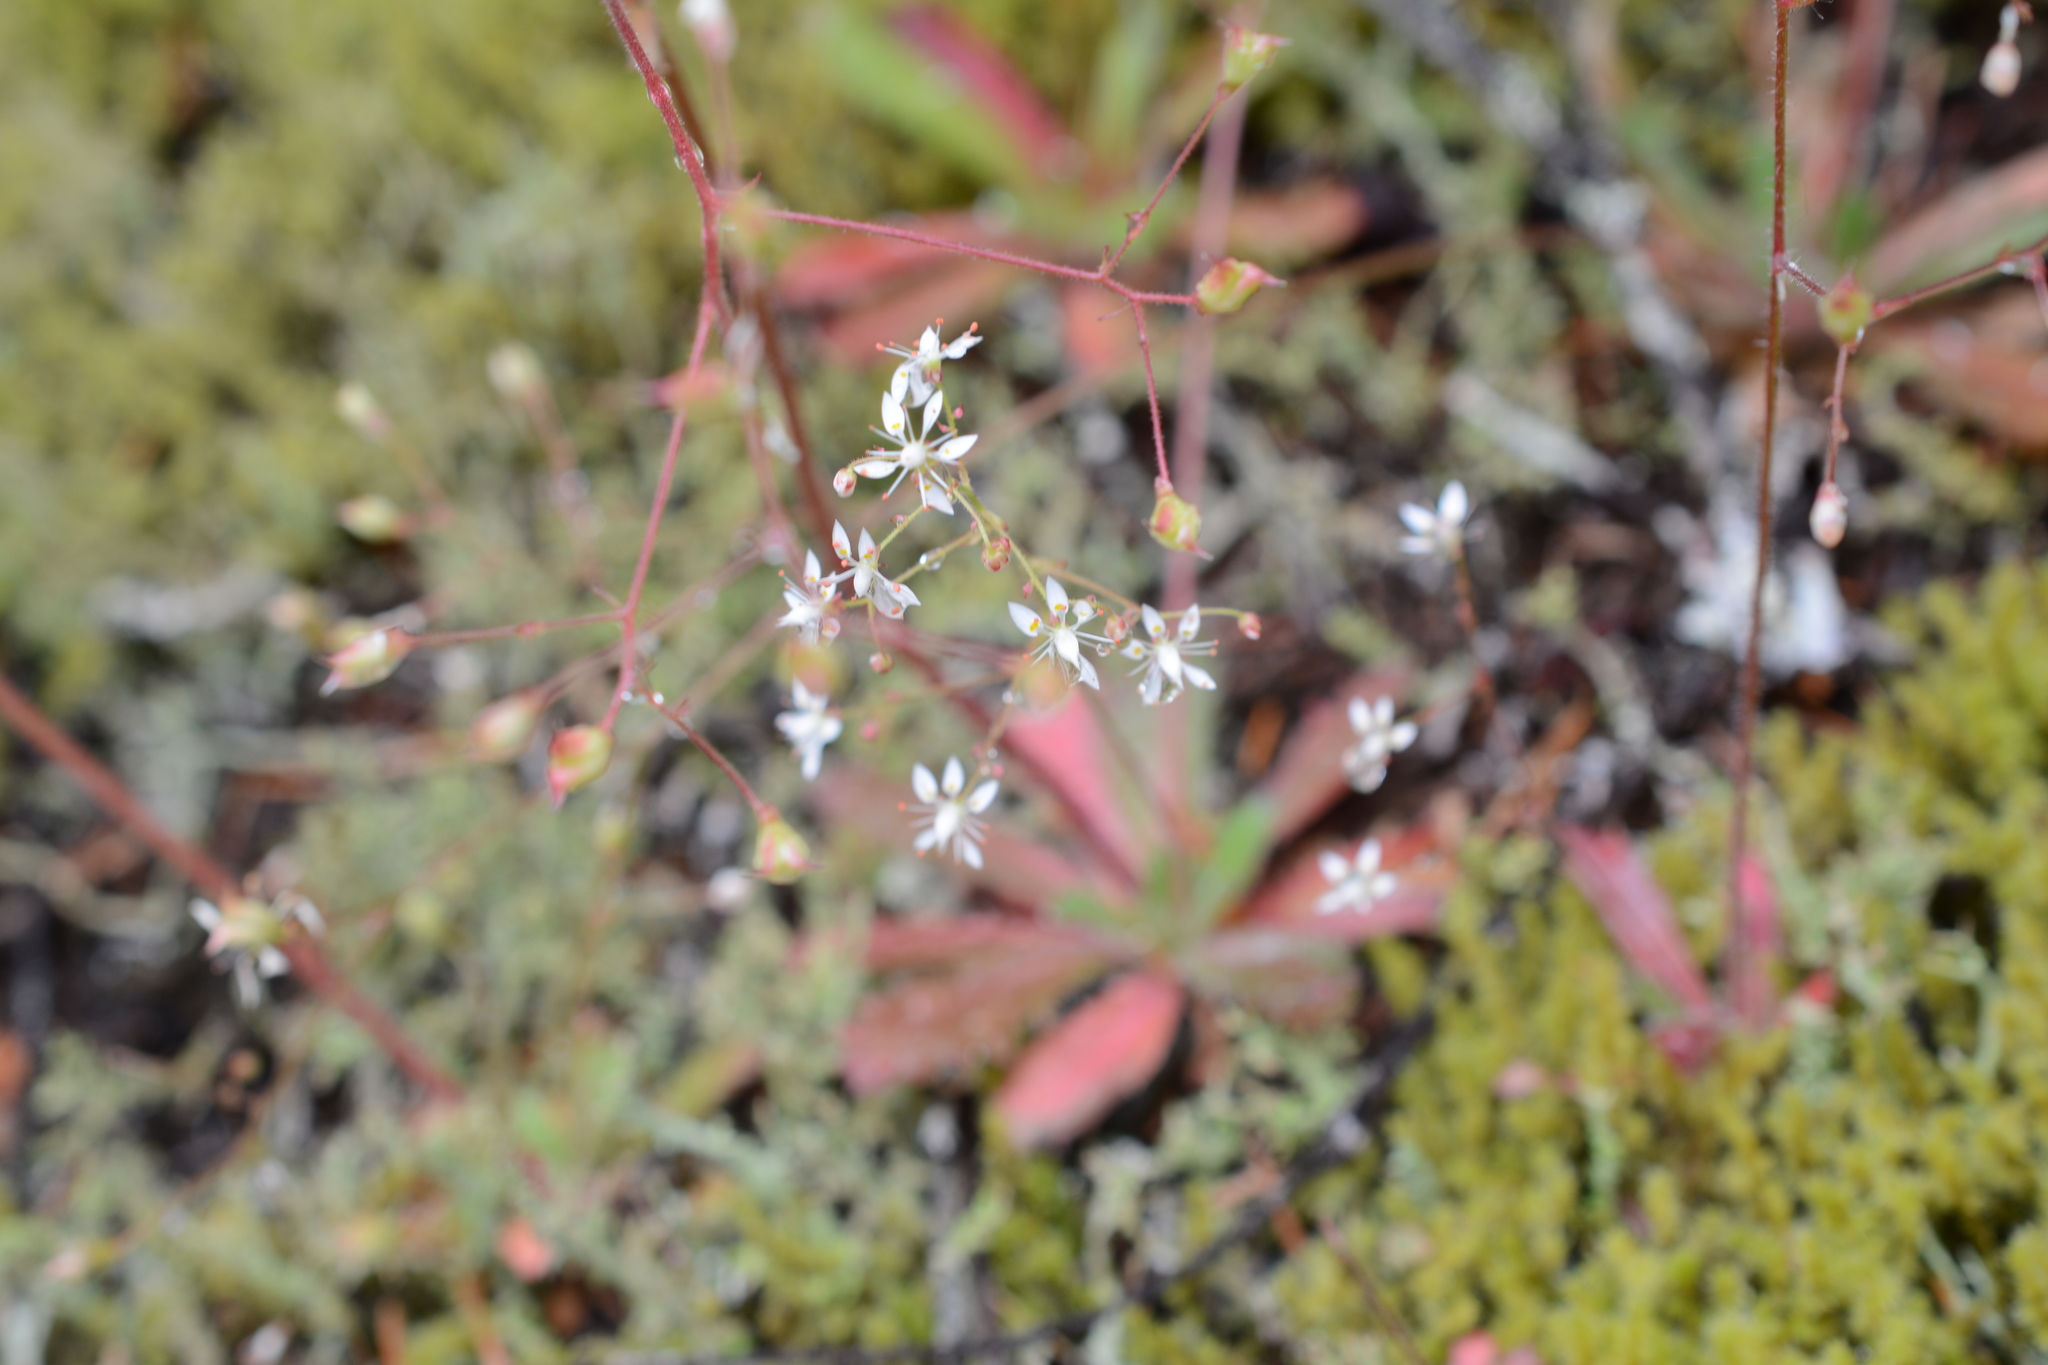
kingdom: Plantae
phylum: Tracheophyta
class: Magnoliopsida
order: Saxifragales
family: Saxifragaceae
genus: Micranthes
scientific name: Micranthes ferruginea
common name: Rusty saxifrage
